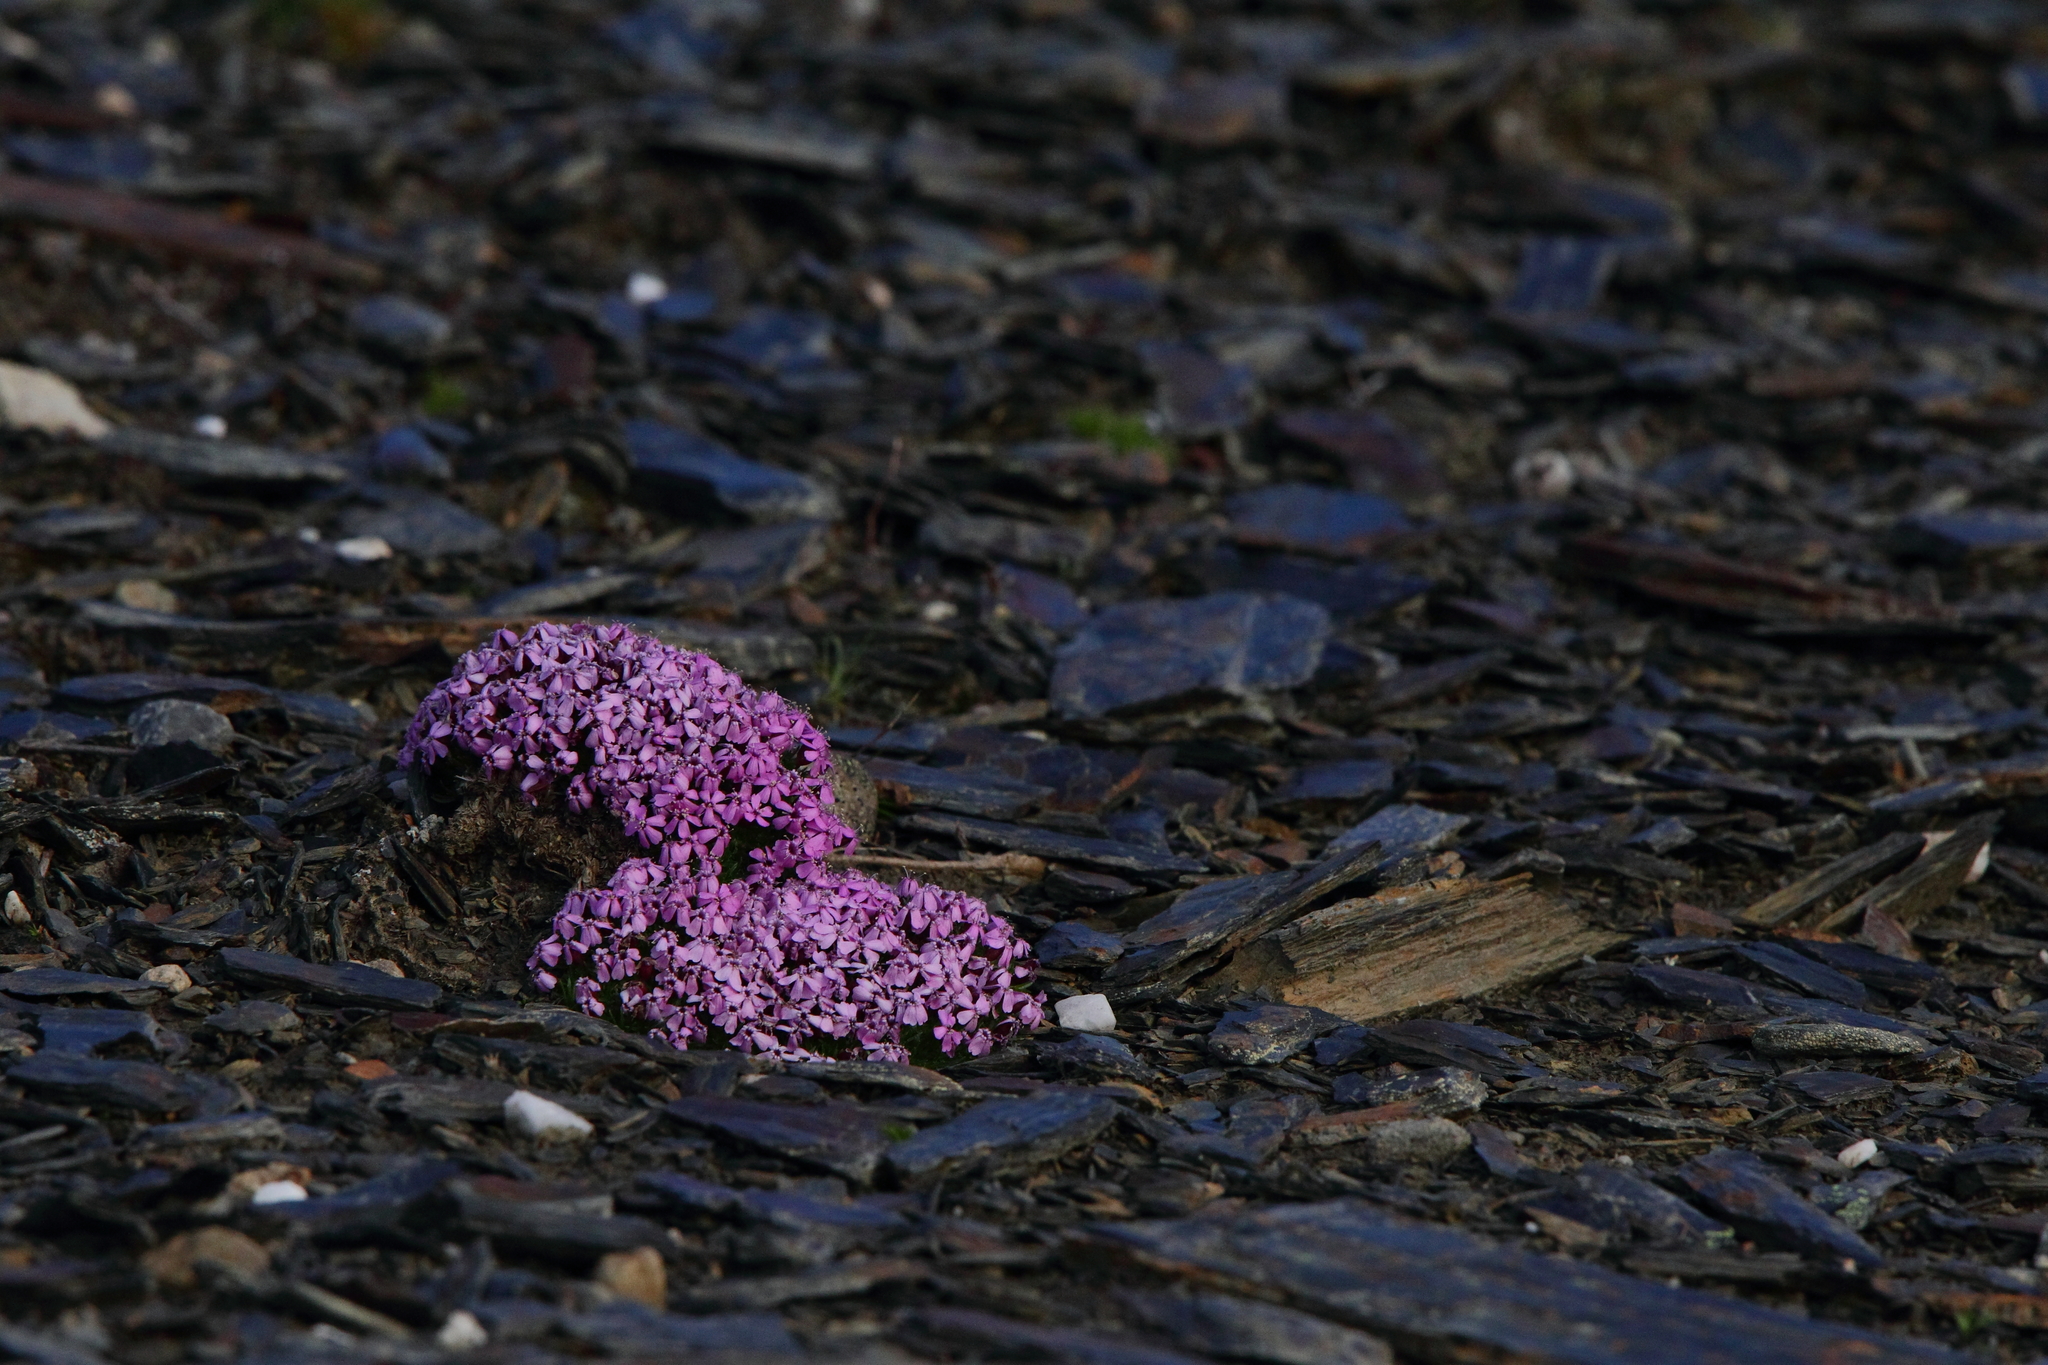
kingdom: Plantae
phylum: Tracheophyta
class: Magnoliopsida
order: Caryophyllales
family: Caryophyllaceae
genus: Silene
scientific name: Silene acaulis
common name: Moss campion
